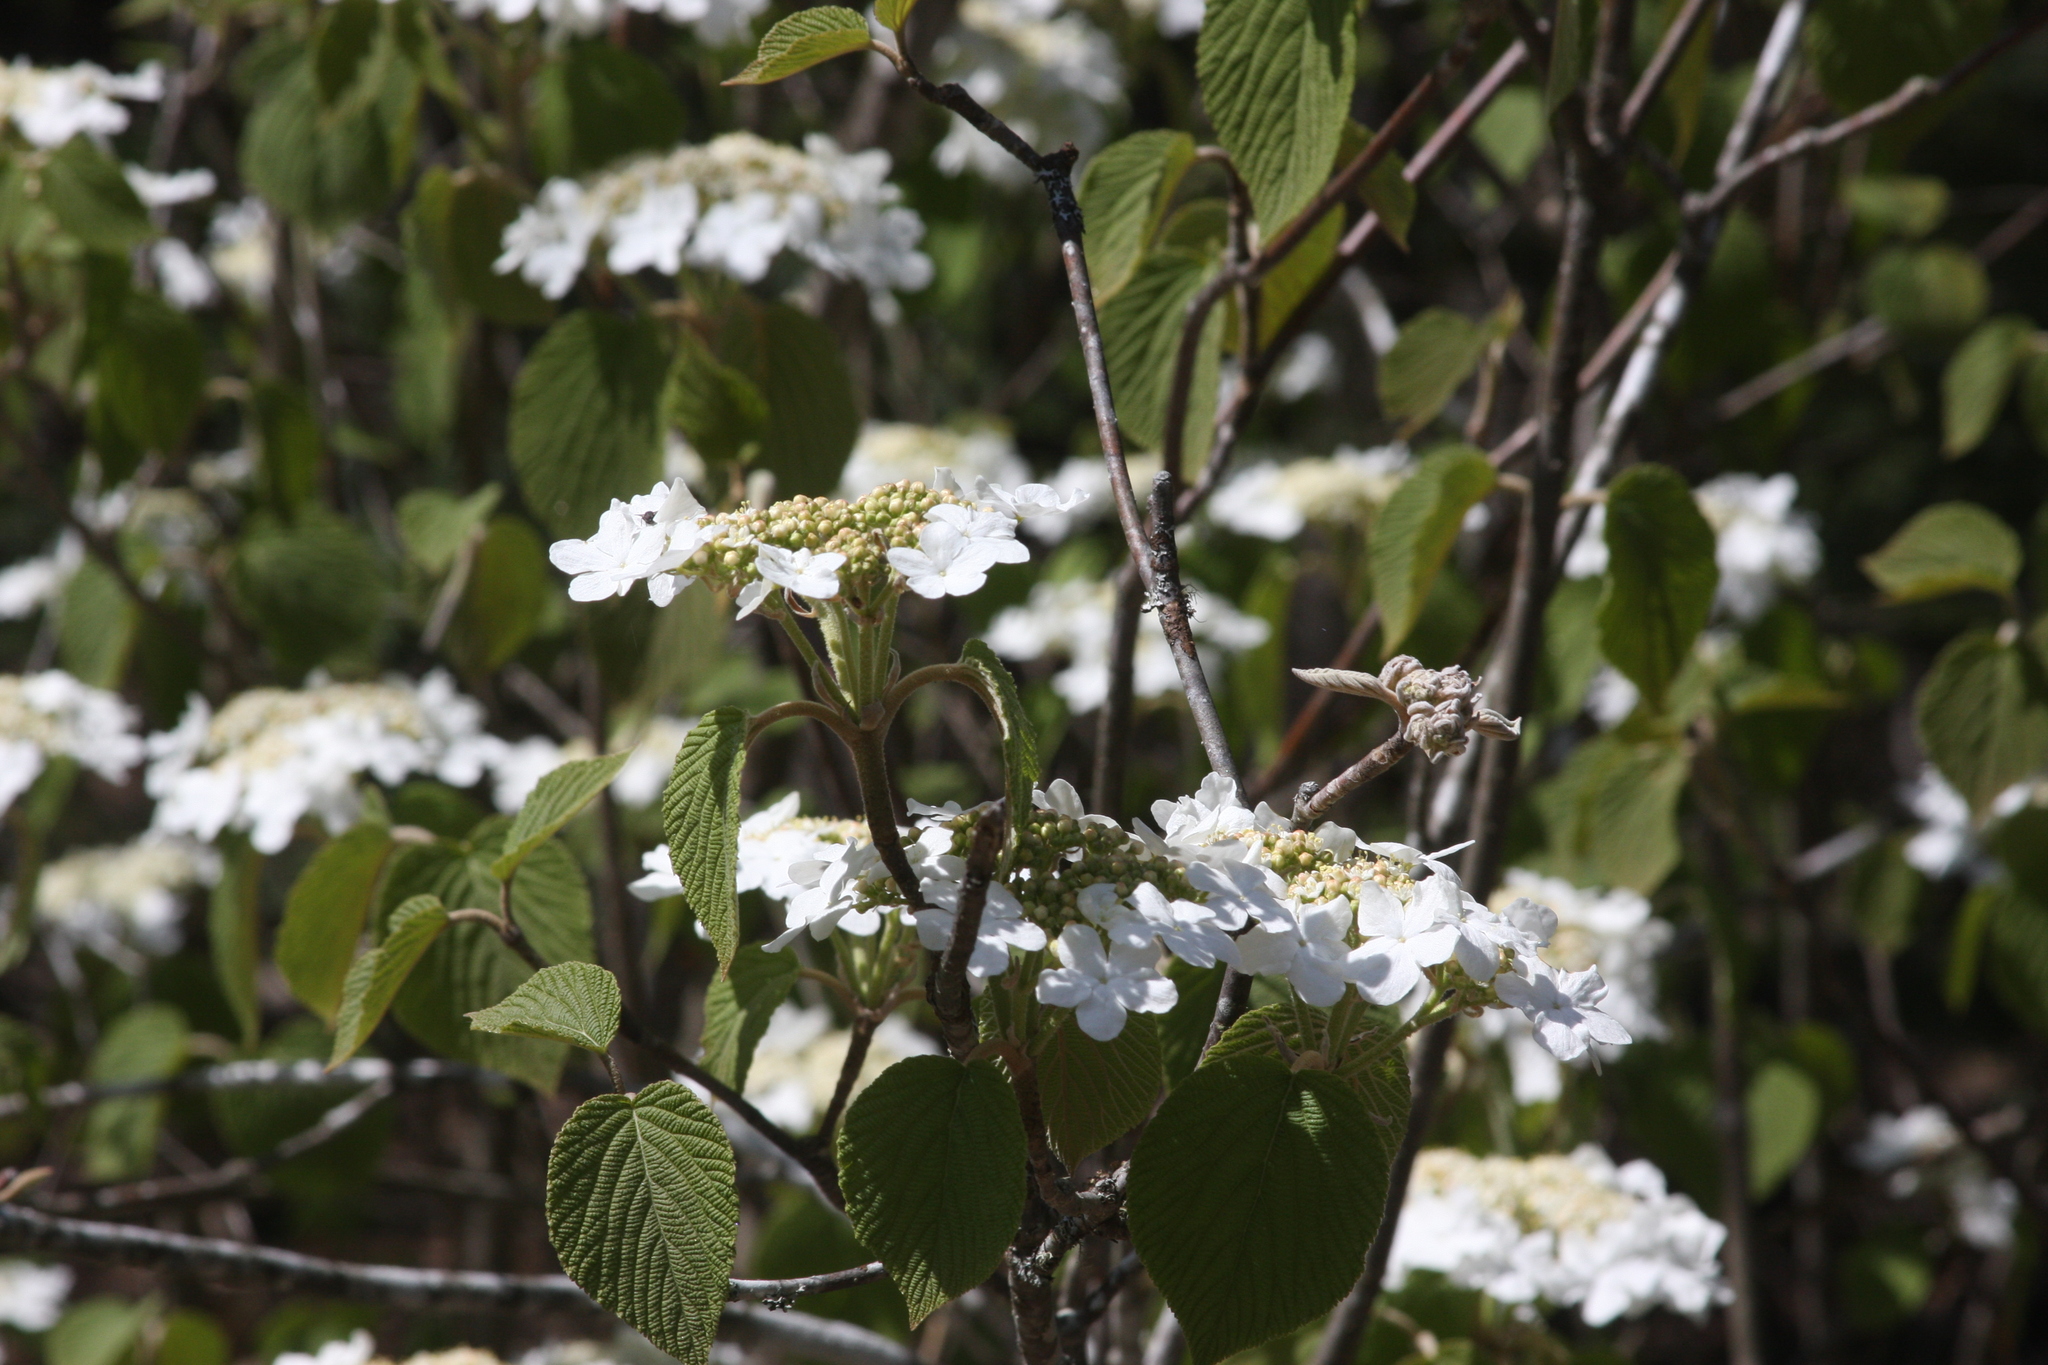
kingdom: Plantae
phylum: Tracheophyta
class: Magnoliopsida
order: Dipsacales
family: Viburnaceae
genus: Viburnum
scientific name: Viburnum lantanoides
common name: Hobblebush
